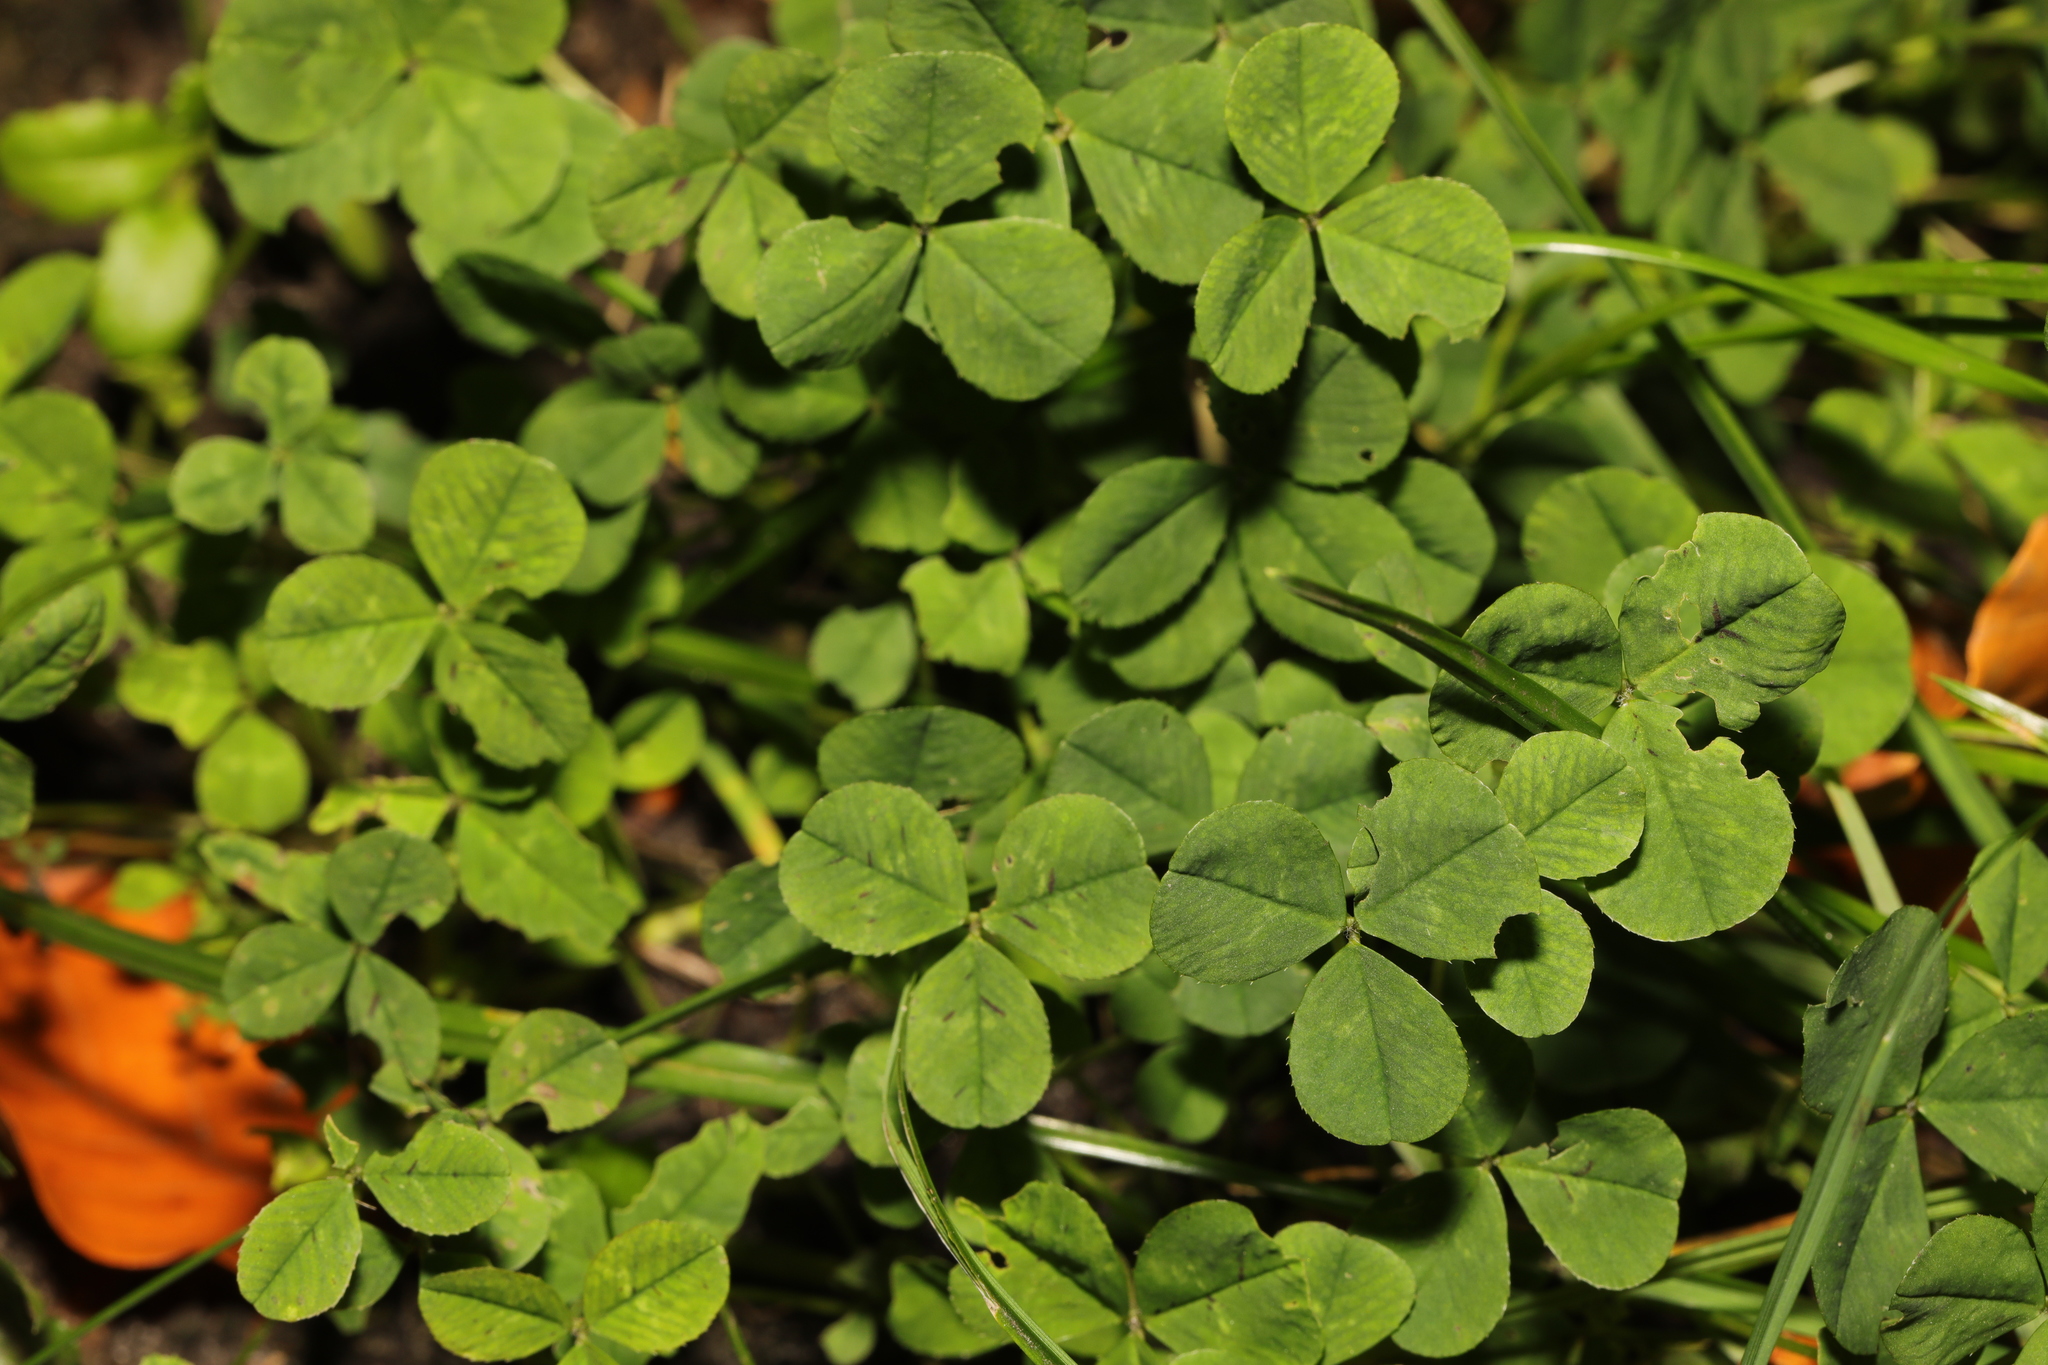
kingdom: Plantae
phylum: Tracheophyta
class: Magnoliopsida
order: Fabales
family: Fabaceae
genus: Trifolium
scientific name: Trifolium repens
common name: White clover
